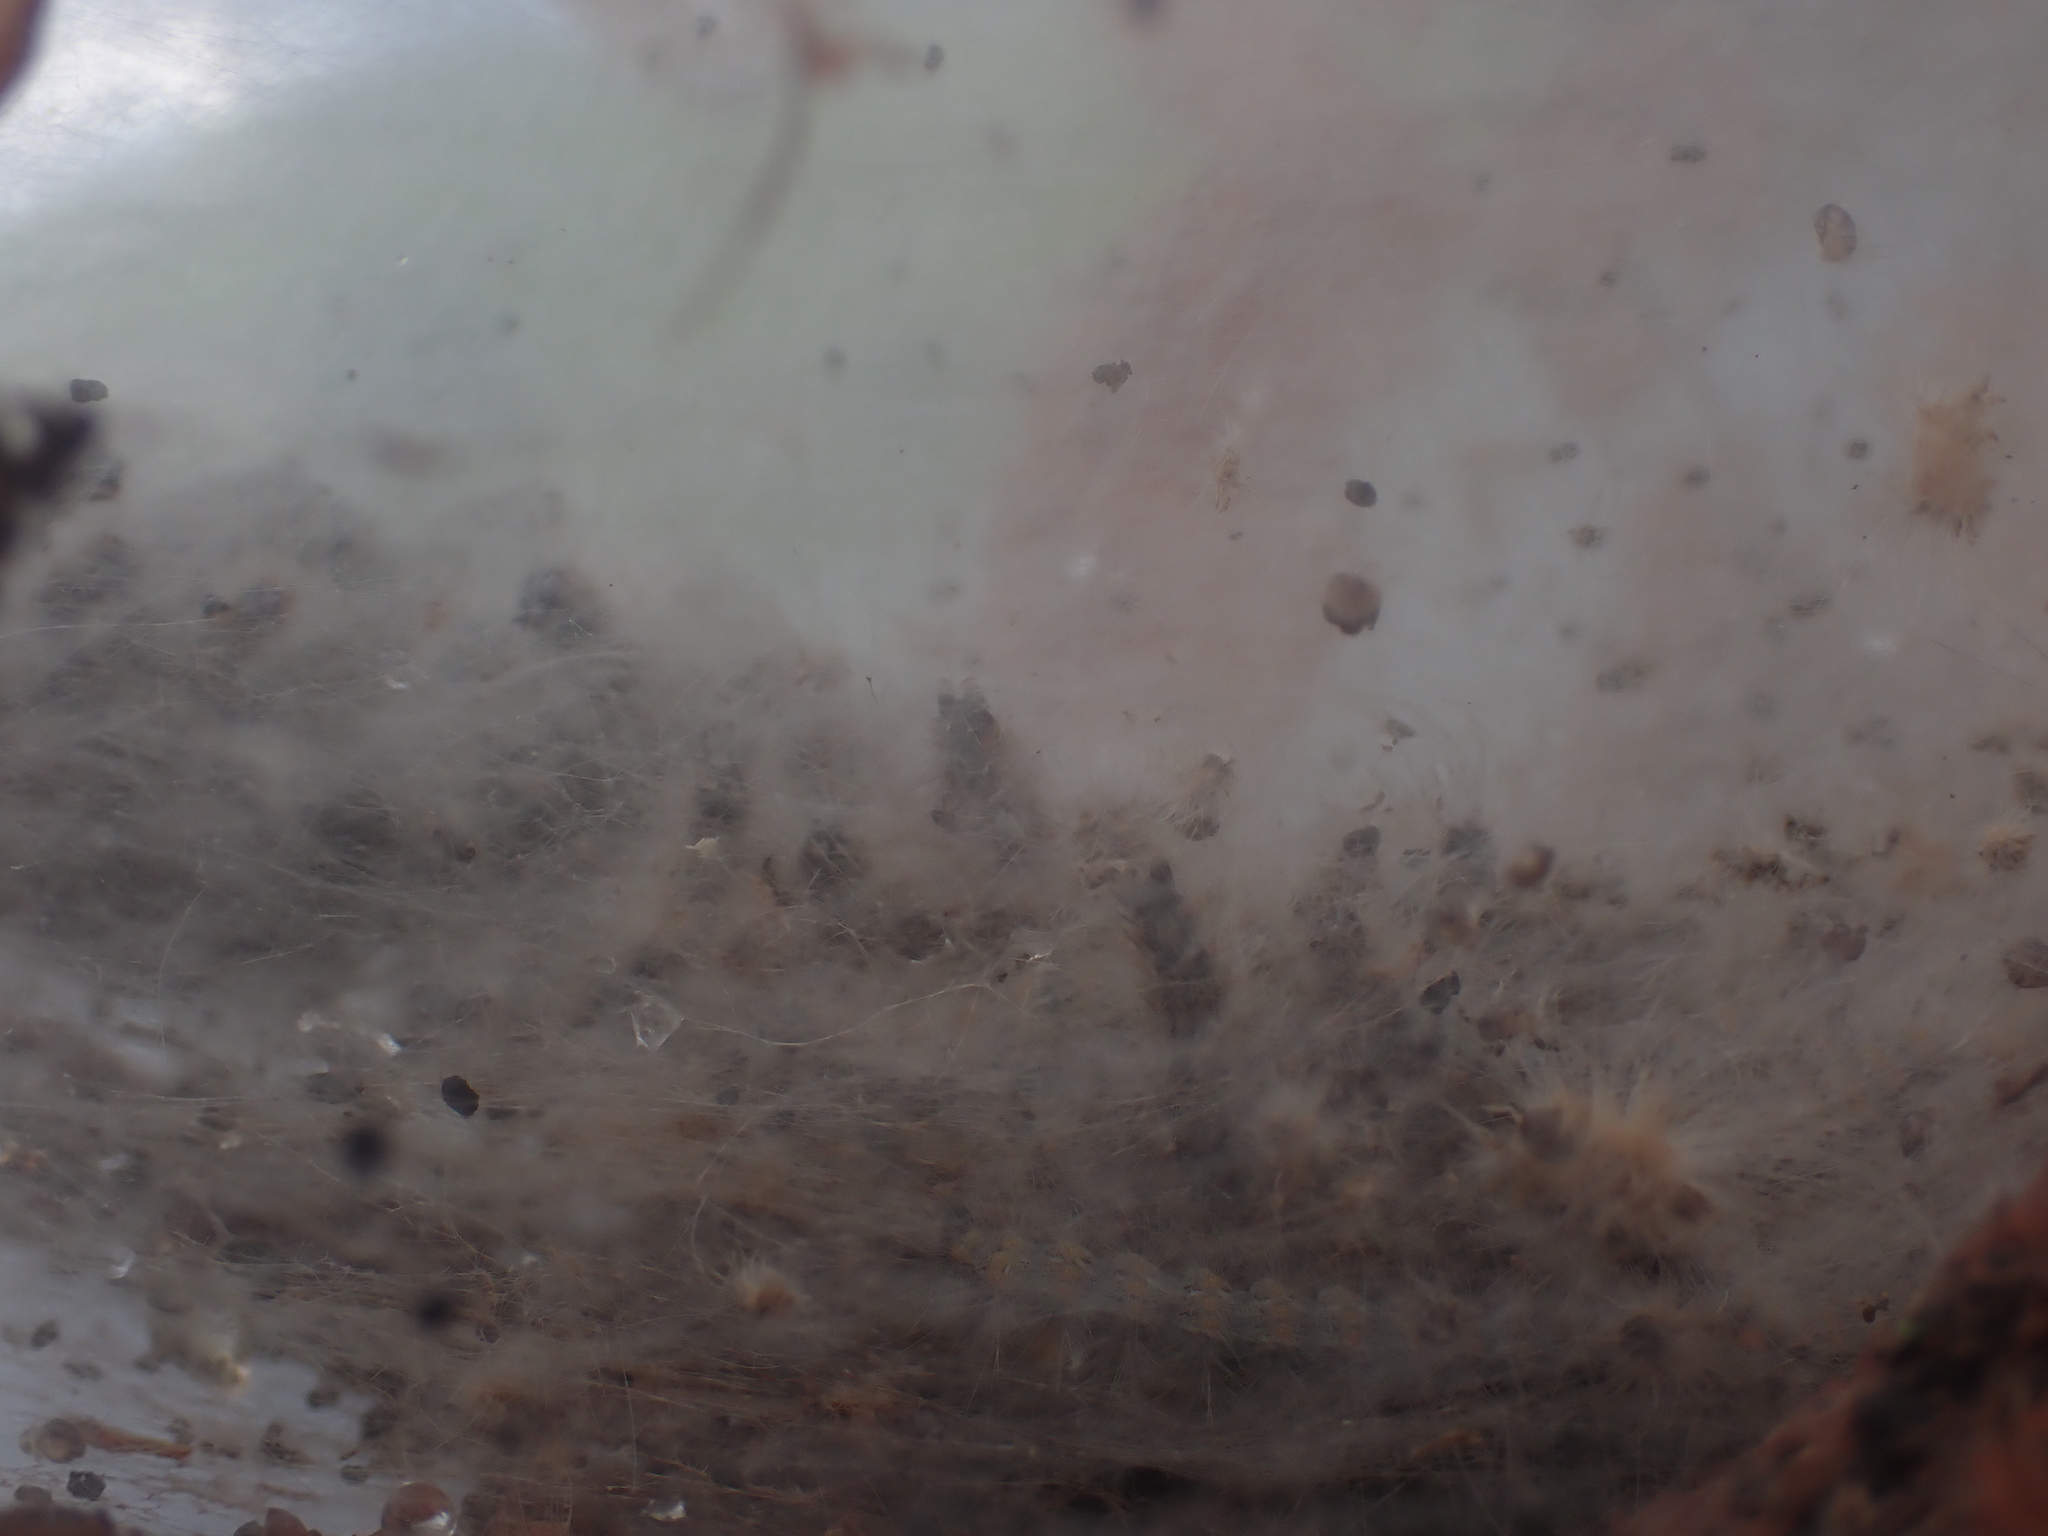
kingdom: Animalia
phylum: Arthropoda
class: Insecta
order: Lepidoptera
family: Erebidae
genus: Hyphantria
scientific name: Hyphantria cunea
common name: American white moth
